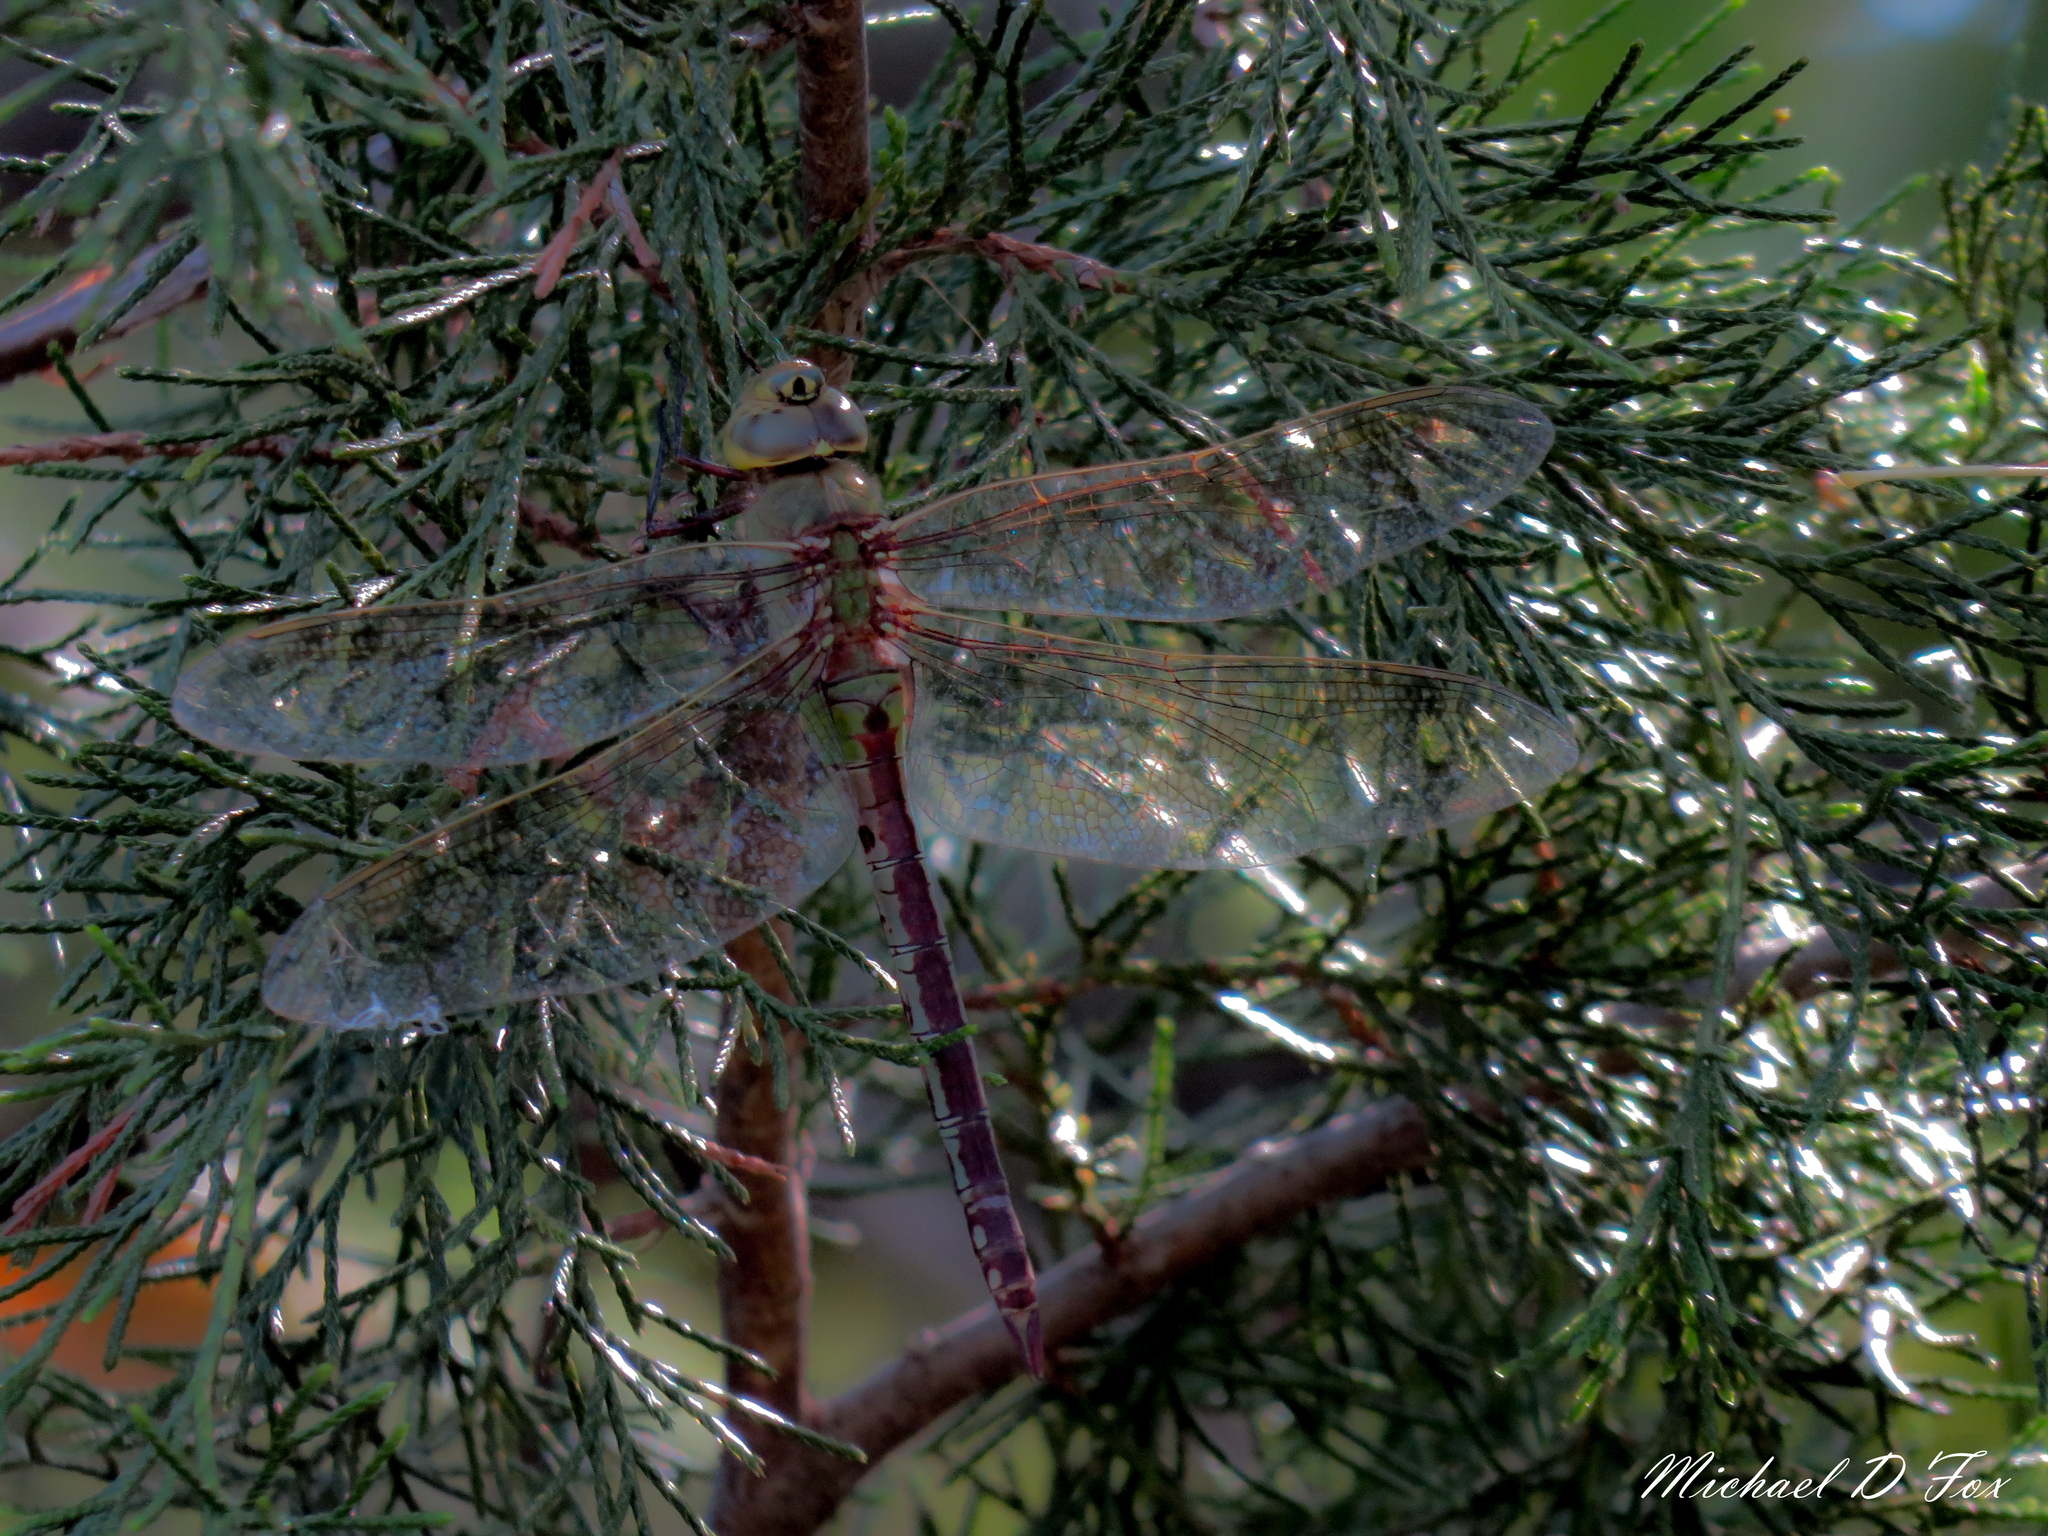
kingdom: Animalia
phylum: Arthropoda
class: Insecta
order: Odonata
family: Aeshnidae
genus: Anax
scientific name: Anax junius
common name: Common green darner
